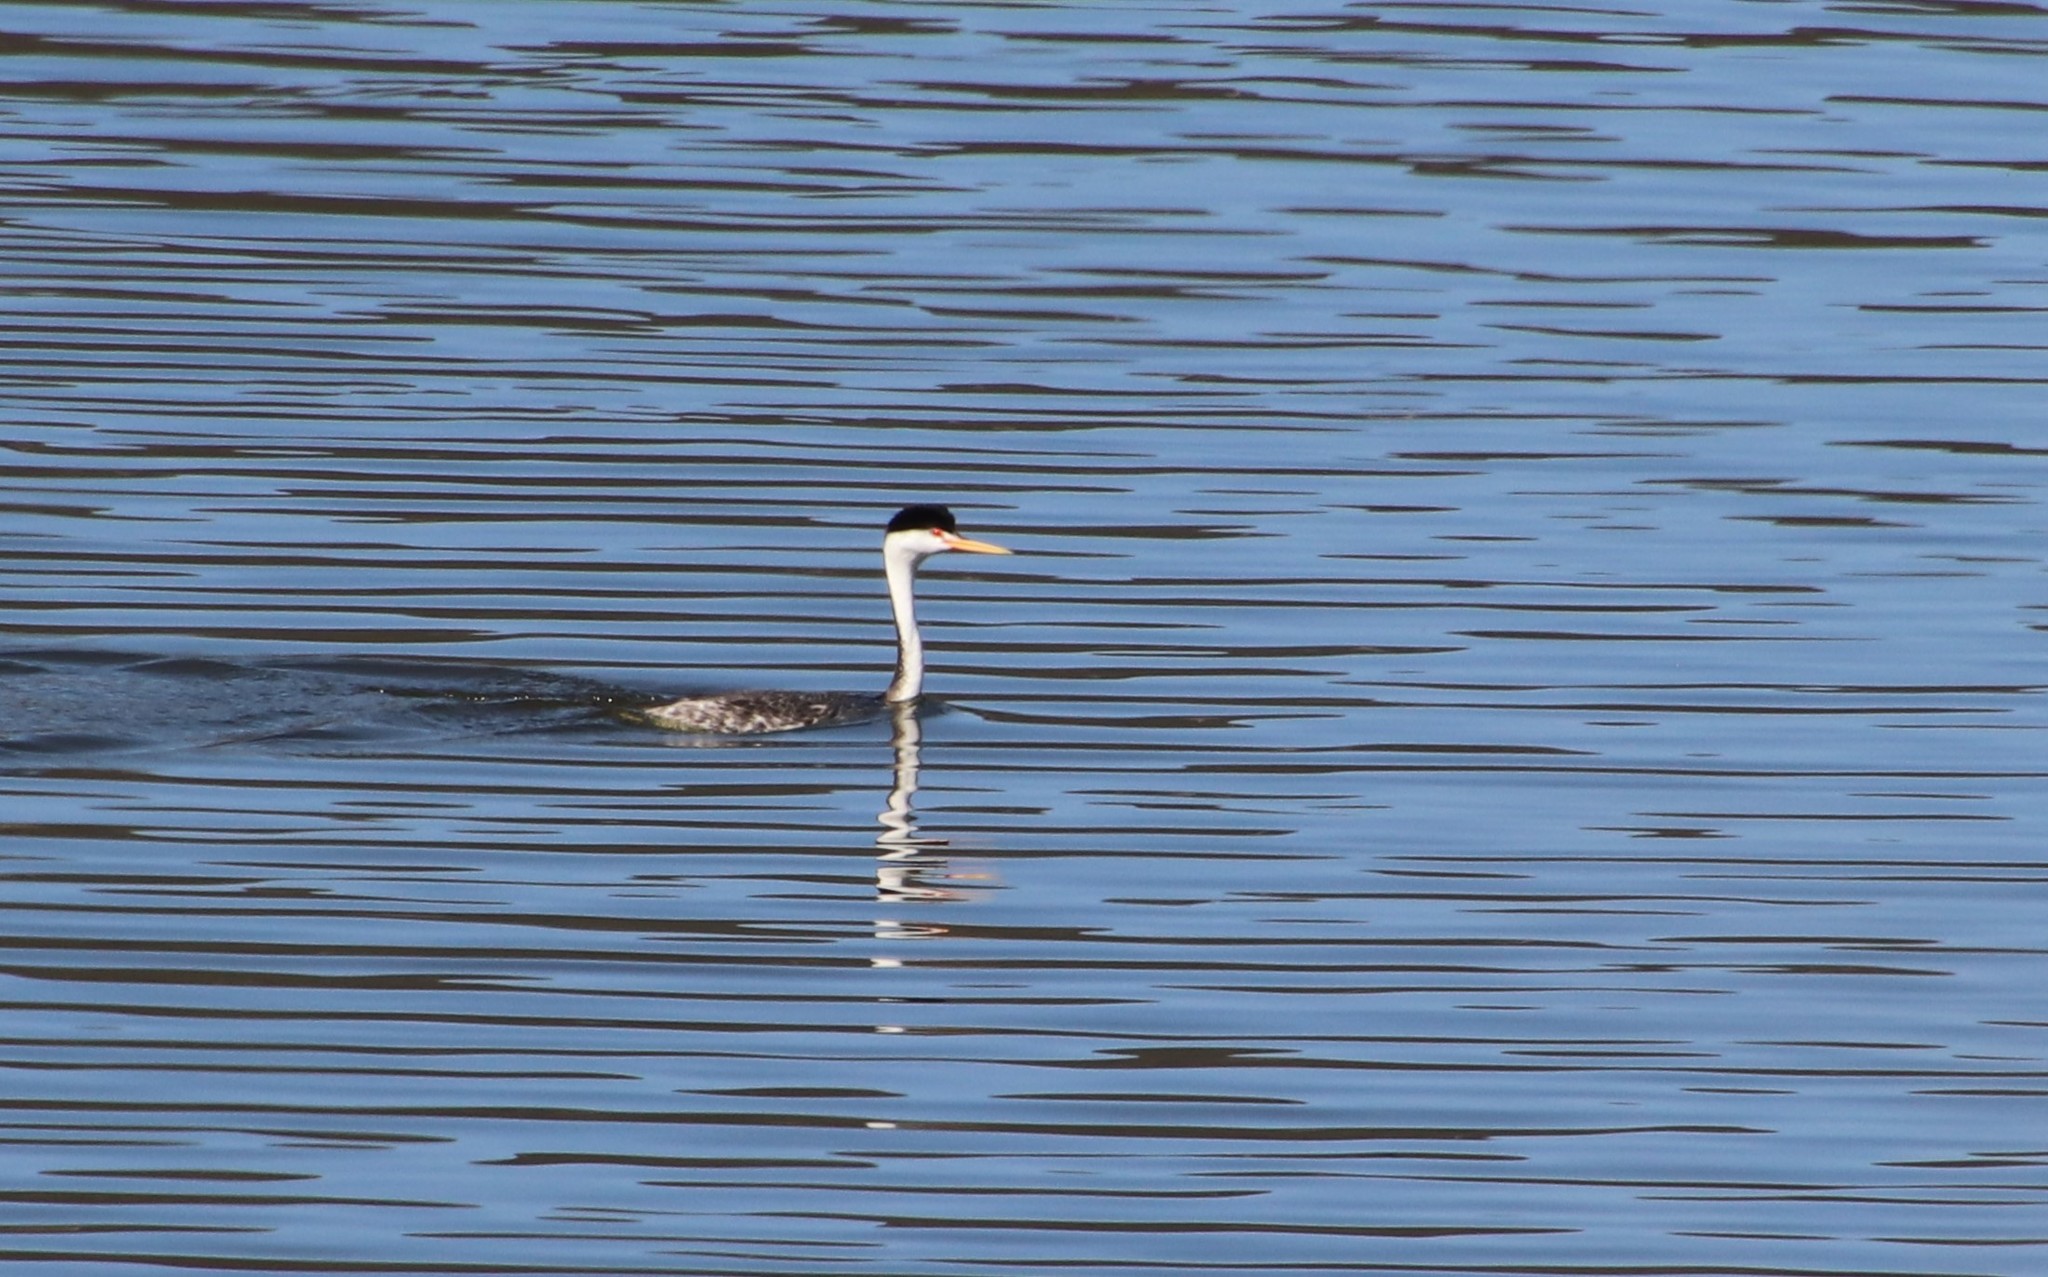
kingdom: Animalia
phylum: Chordata
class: Aves
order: Podicipediformes
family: Podicipedidae
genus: Aechmophorus
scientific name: Aechmophorus clarkii
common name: Clark's grebe
